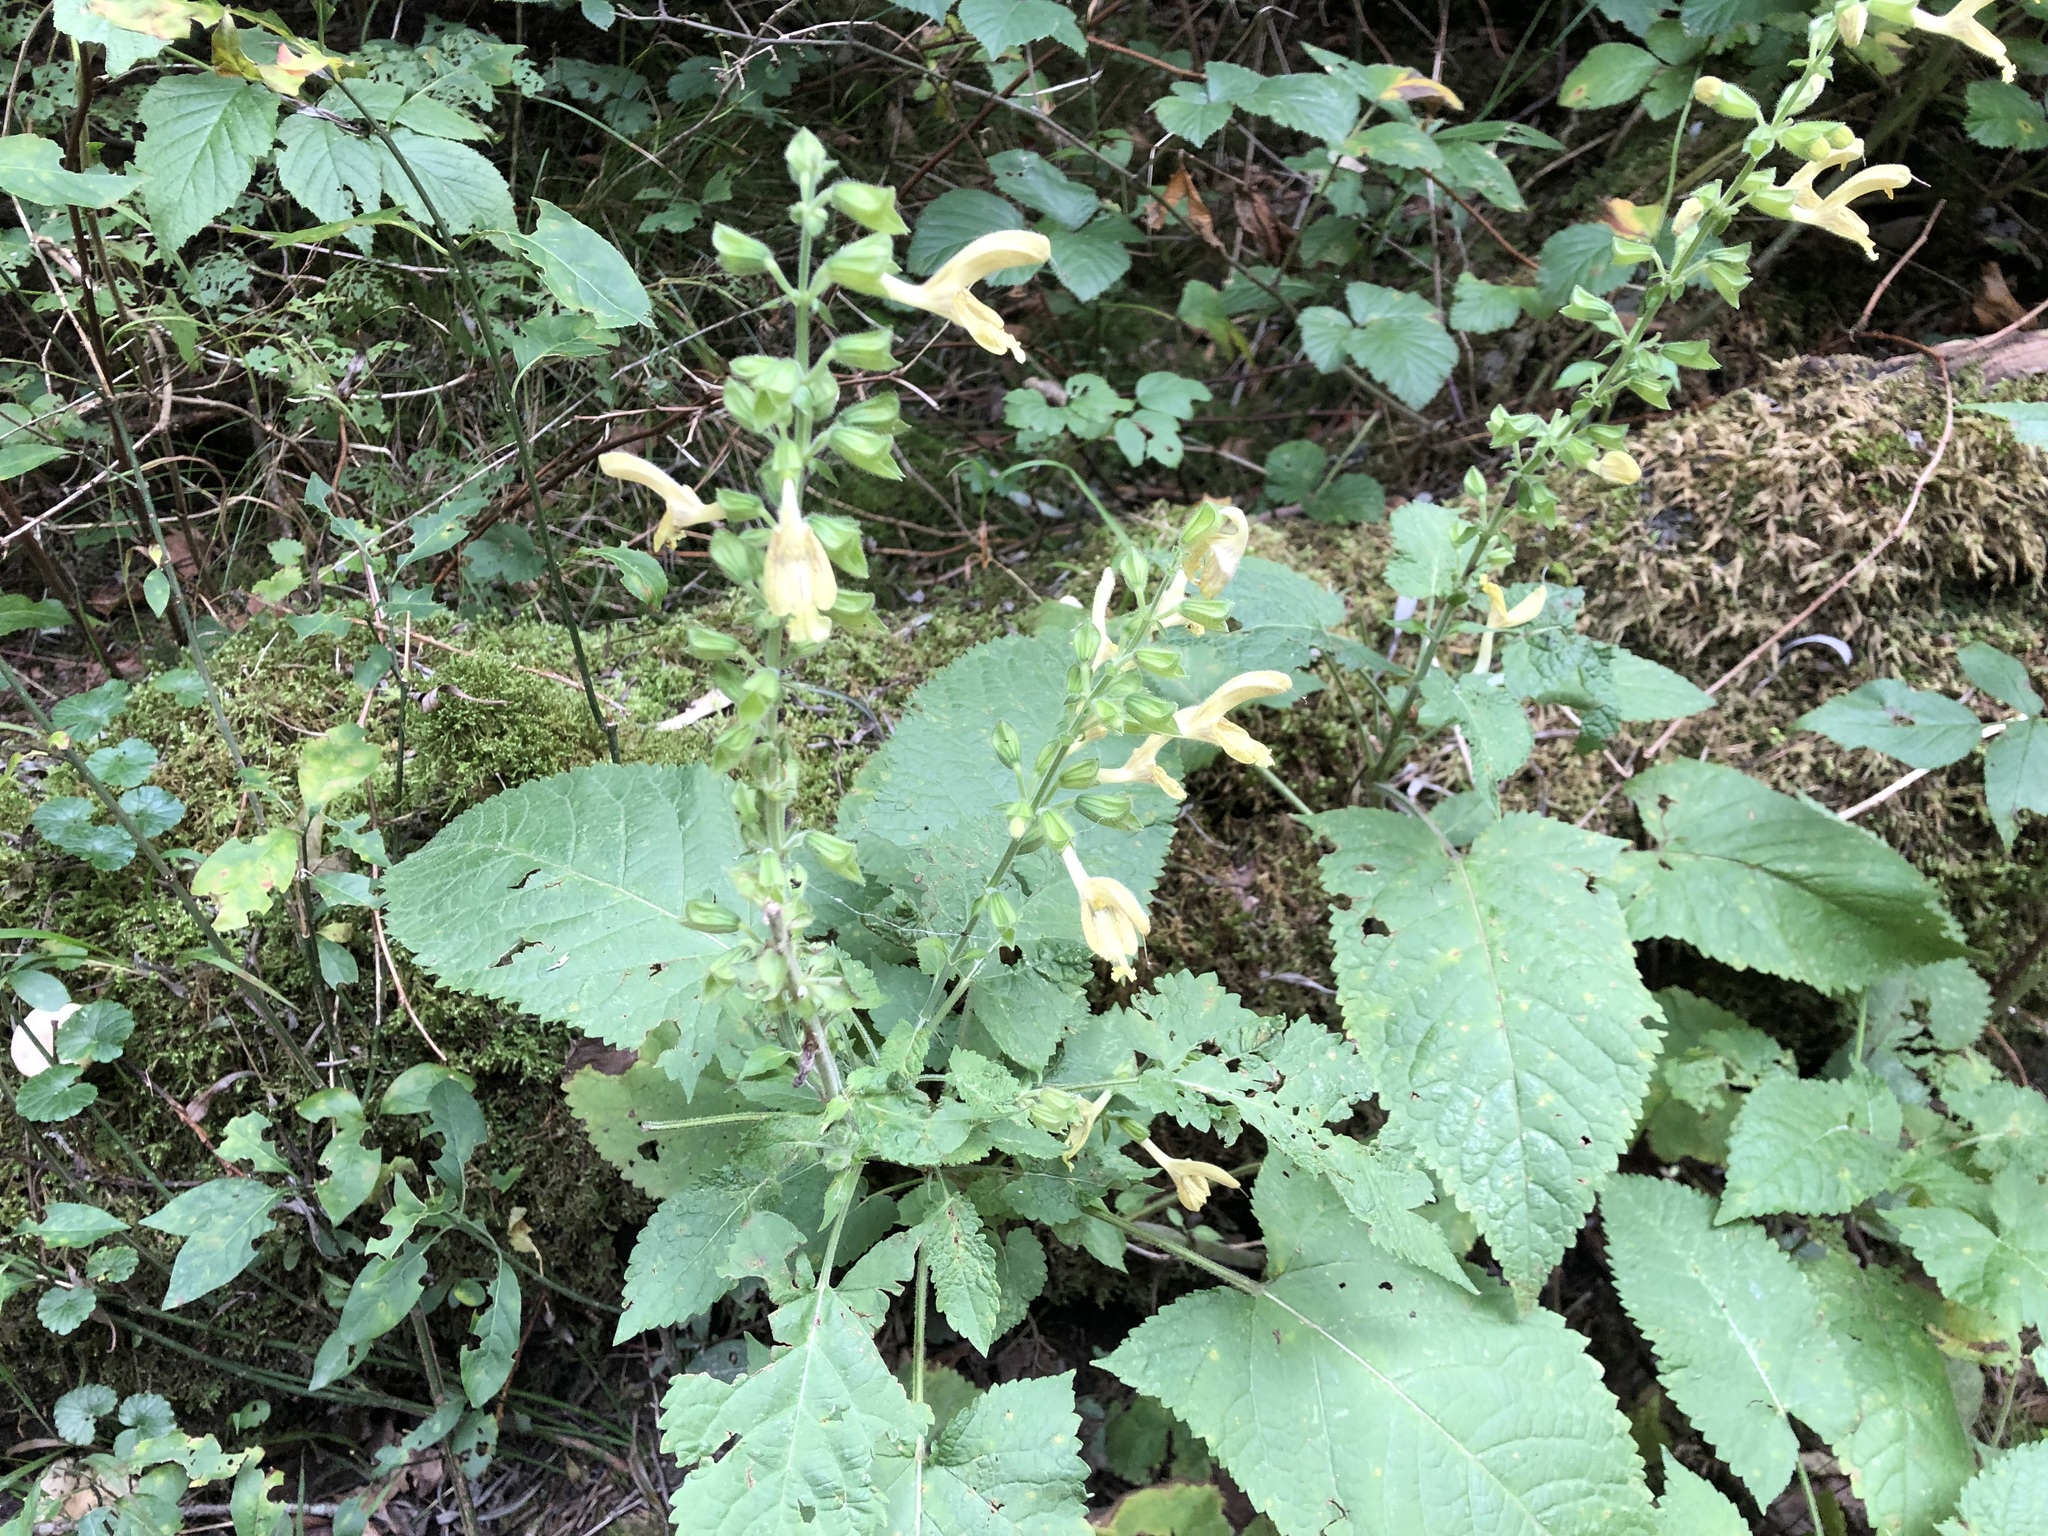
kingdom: Plantae
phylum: Tracheophyta
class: Magnoliopsida
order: Lamiales
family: Lamiaceae
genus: Salvia
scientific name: Salvia glutinosa
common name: Sticky clary
